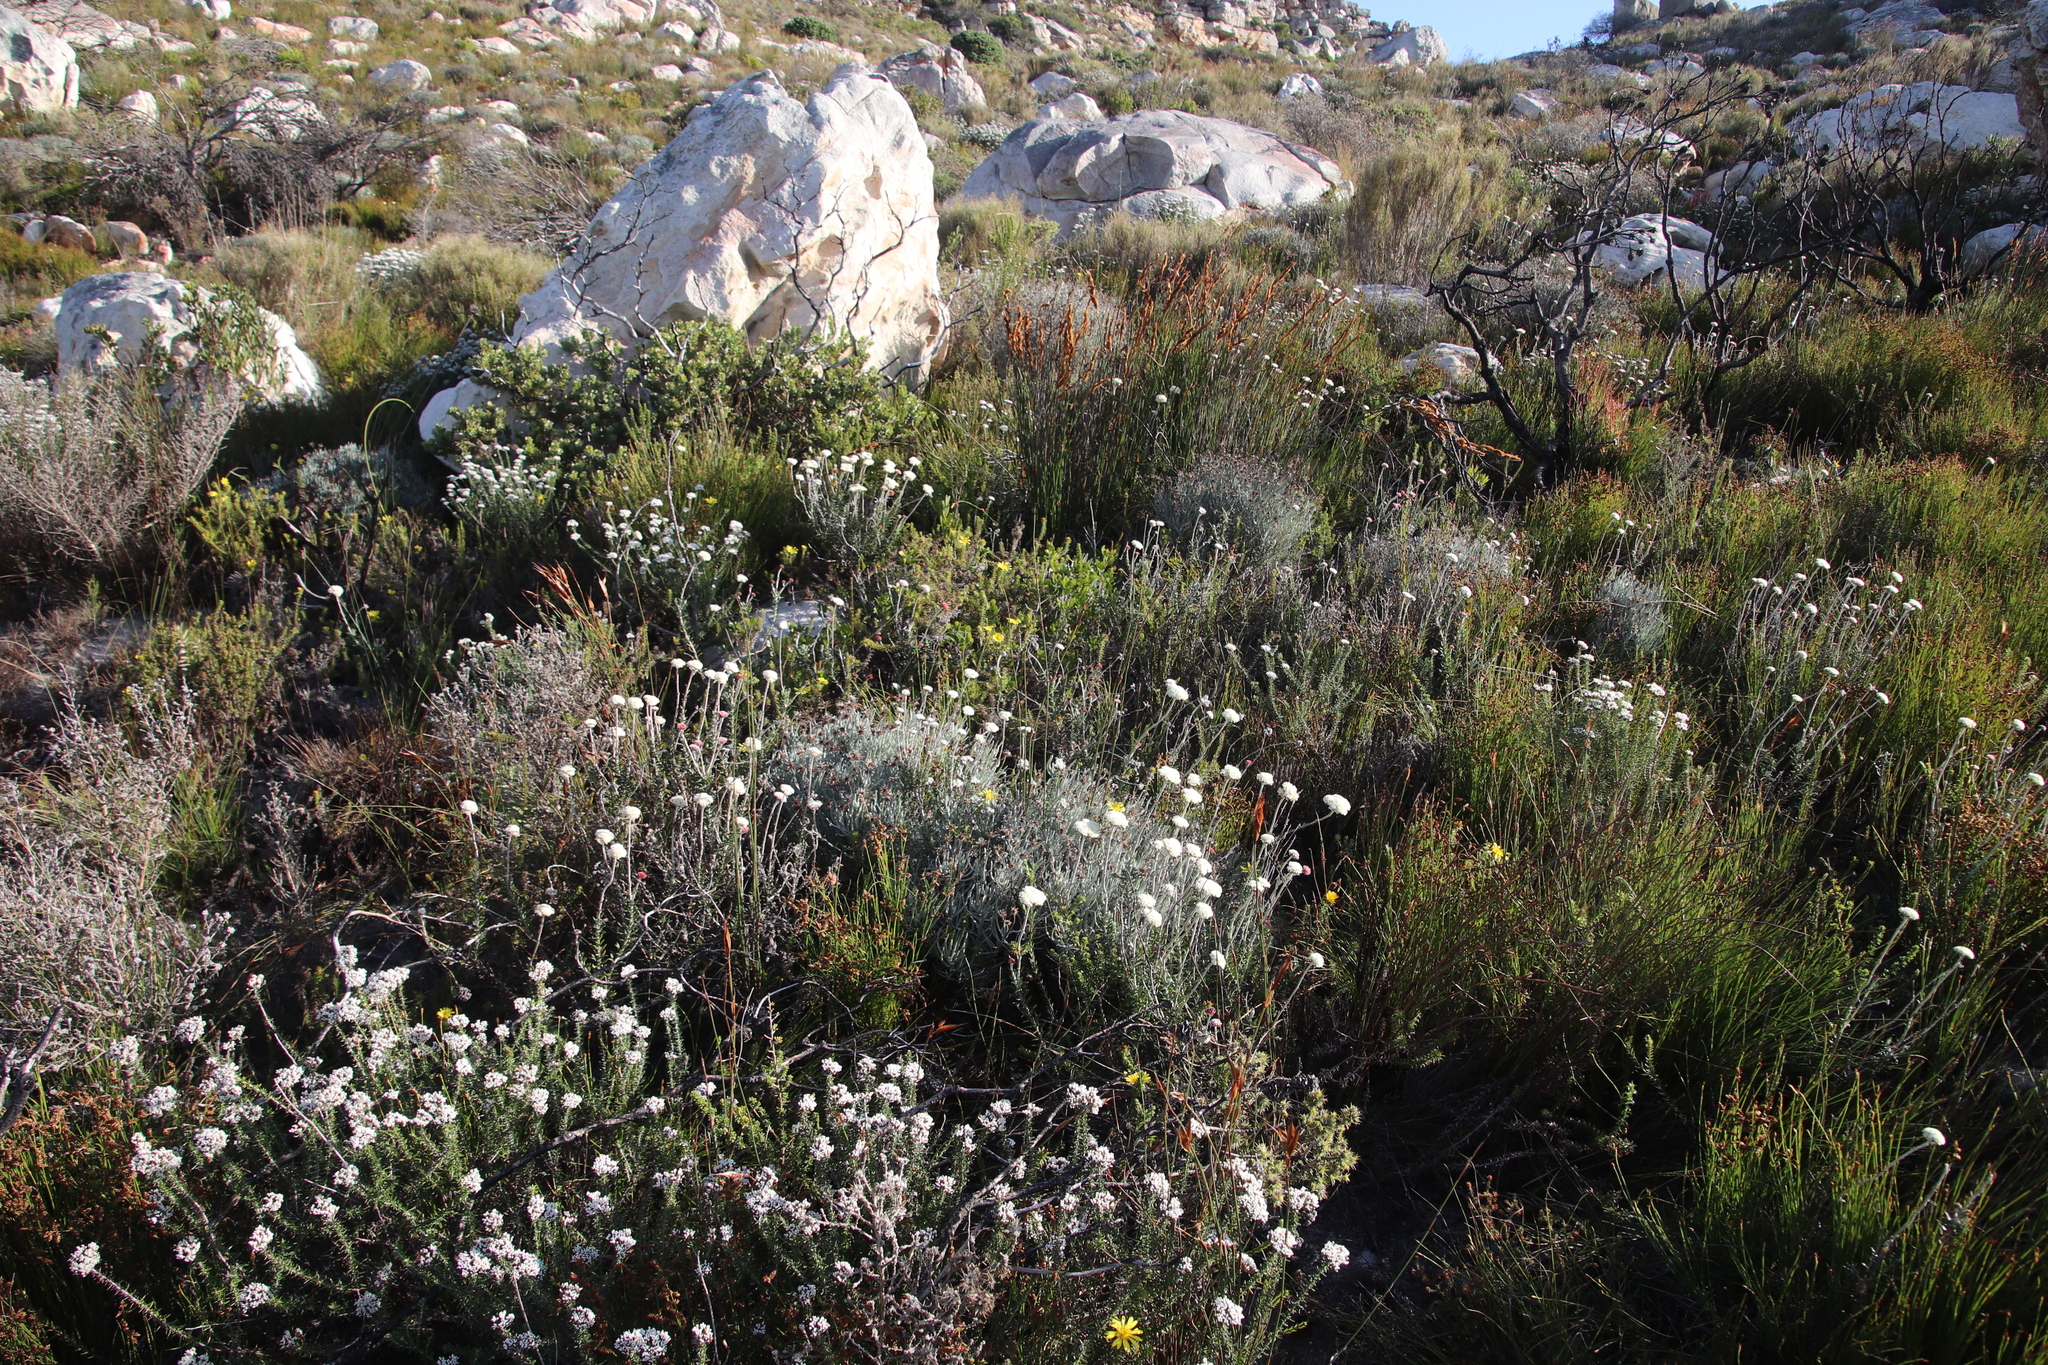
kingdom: Plantae
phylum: Tracheophyta
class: Magnoliopsida
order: Asterales
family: Asteraceae
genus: Anaxeton
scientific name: Anaxeton laeve
